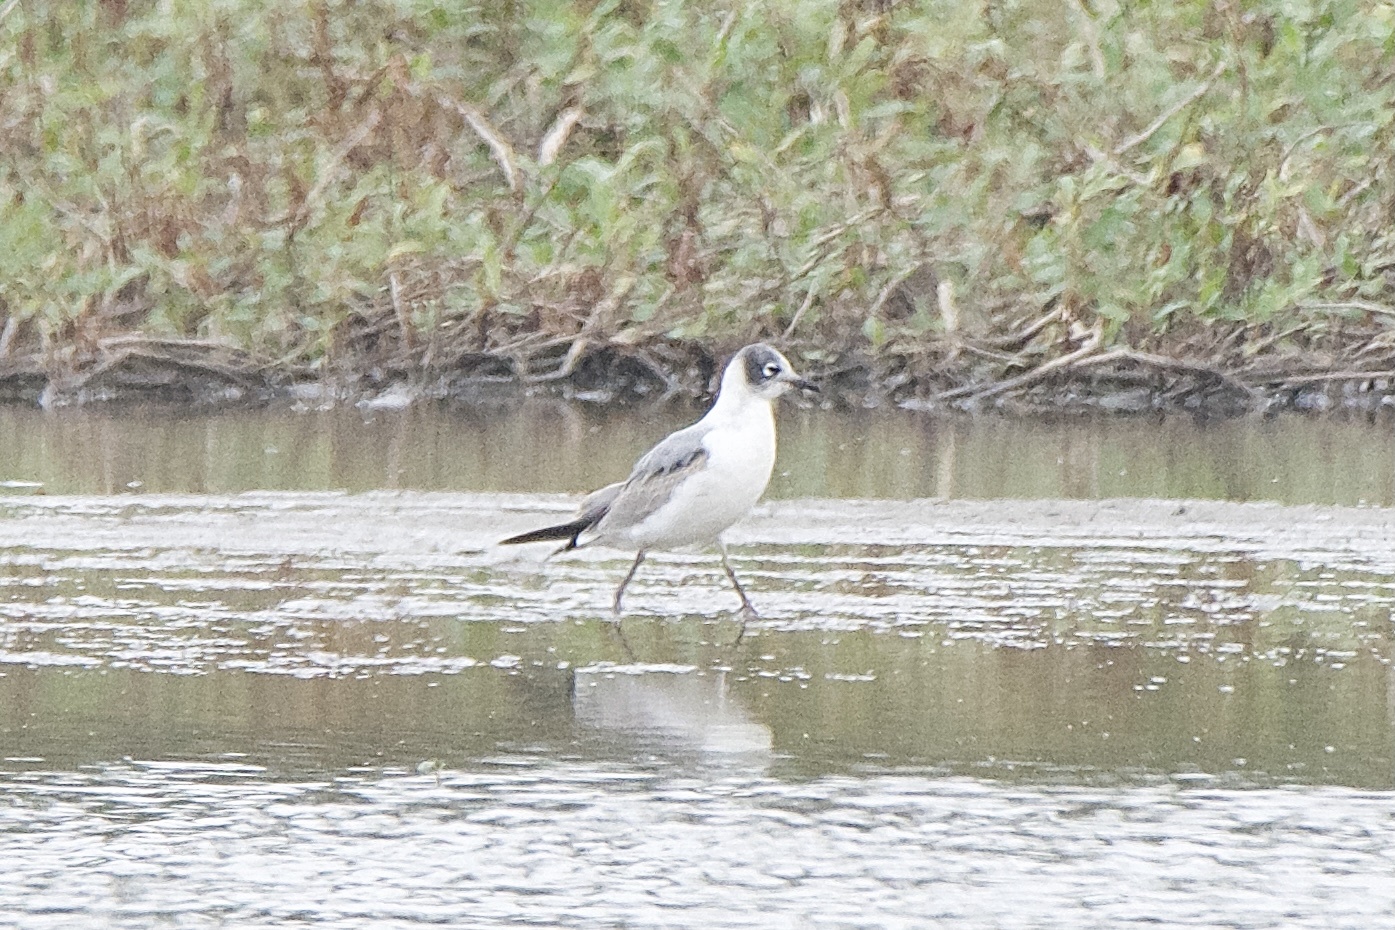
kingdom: Animalia
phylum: Chordata
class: Aves
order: Charadriiformes
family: Laridae
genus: Leucophaeus
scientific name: Leucophaeus pipixcan
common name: Franklin's gull
